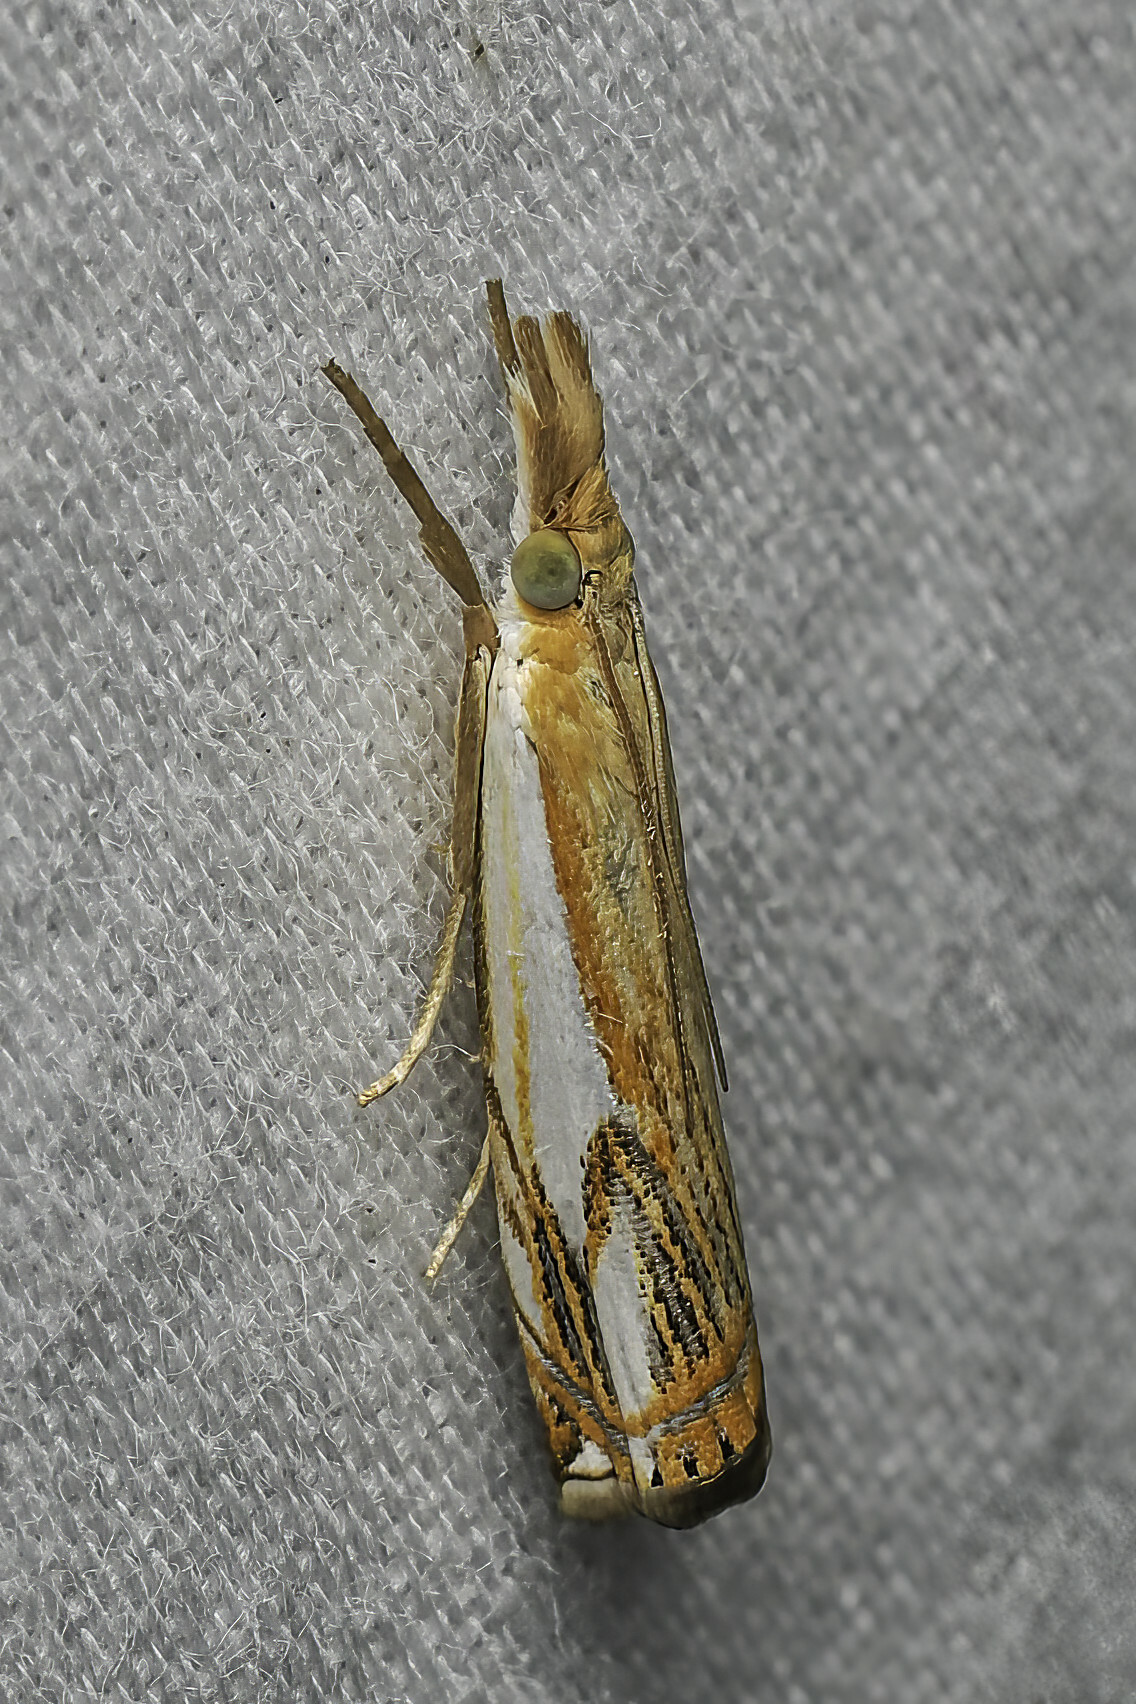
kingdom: Animalia
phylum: Arthropoda
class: Insecta
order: Lepidoptera
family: Crambidae
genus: Crambus
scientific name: Crambus agitatellus
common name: Double-banded grass-veneer
